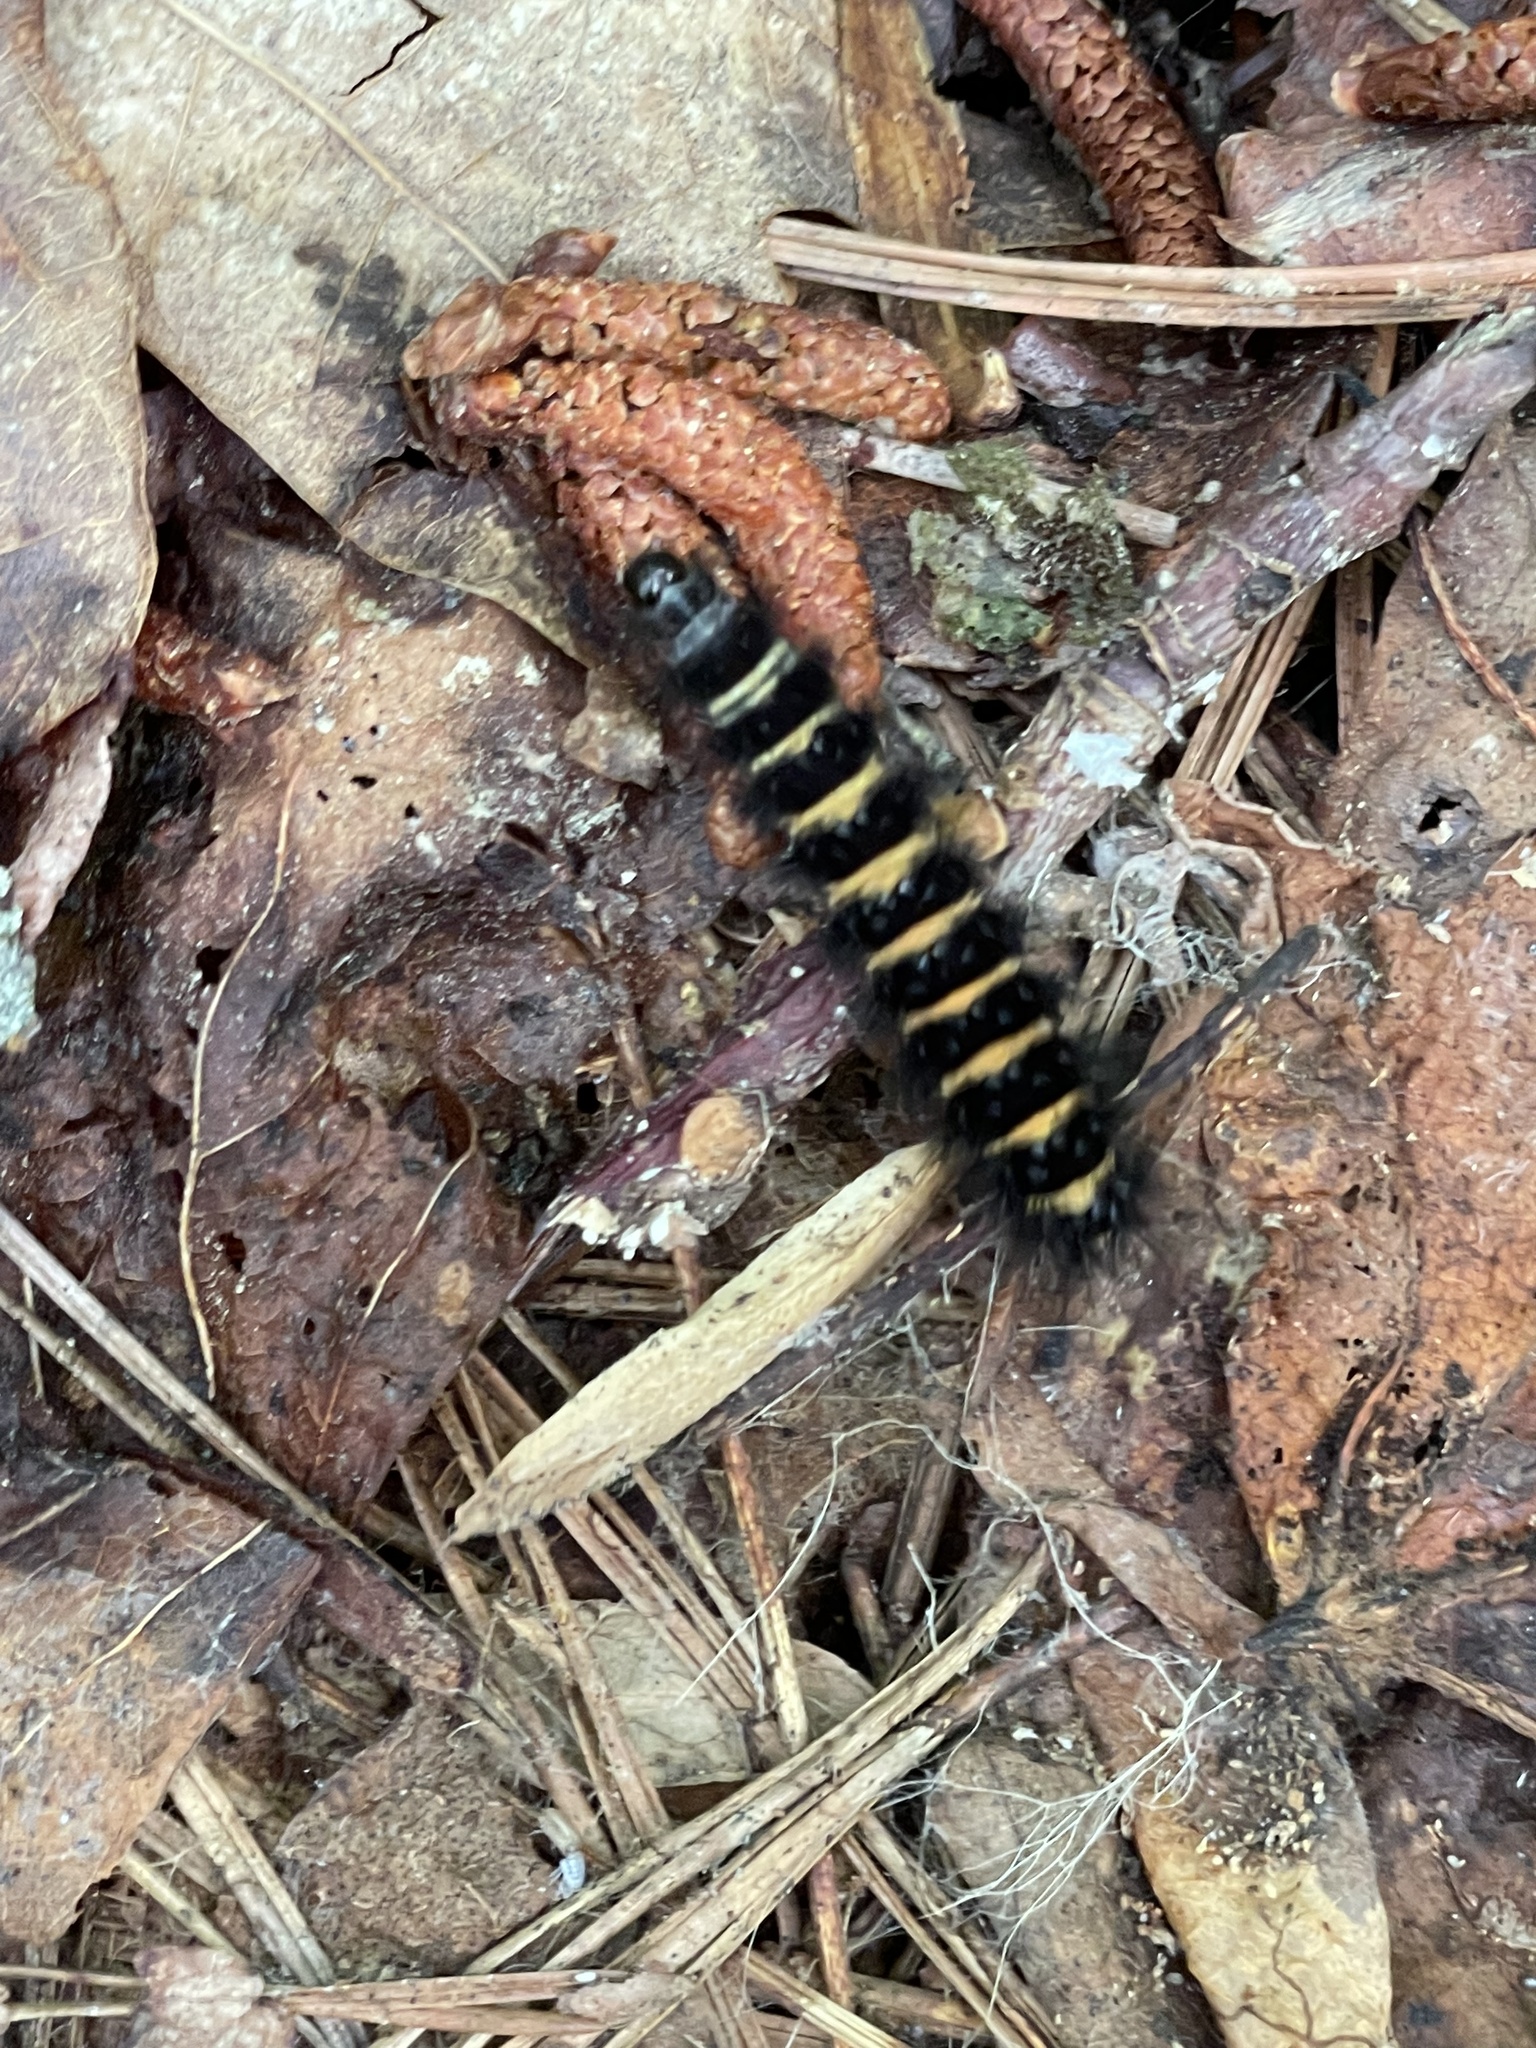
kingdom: Animalia
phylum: Arthropoda
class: Insecta
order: Lepidoptera
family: Erebidae
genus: Spilosoma
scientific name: Spilosoma congrua
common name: Agreeable tiger moth
